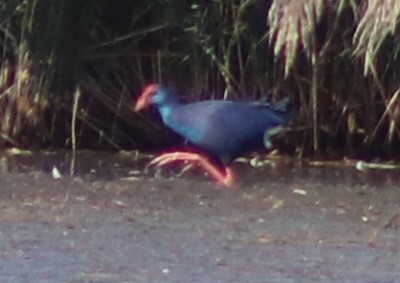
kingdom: Animalia
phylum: Chordata
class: Aves
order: Gruiformes
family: Rallidae
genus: Porphyrio
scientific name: Porphyrio porphyrio
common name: Purple swamphen
